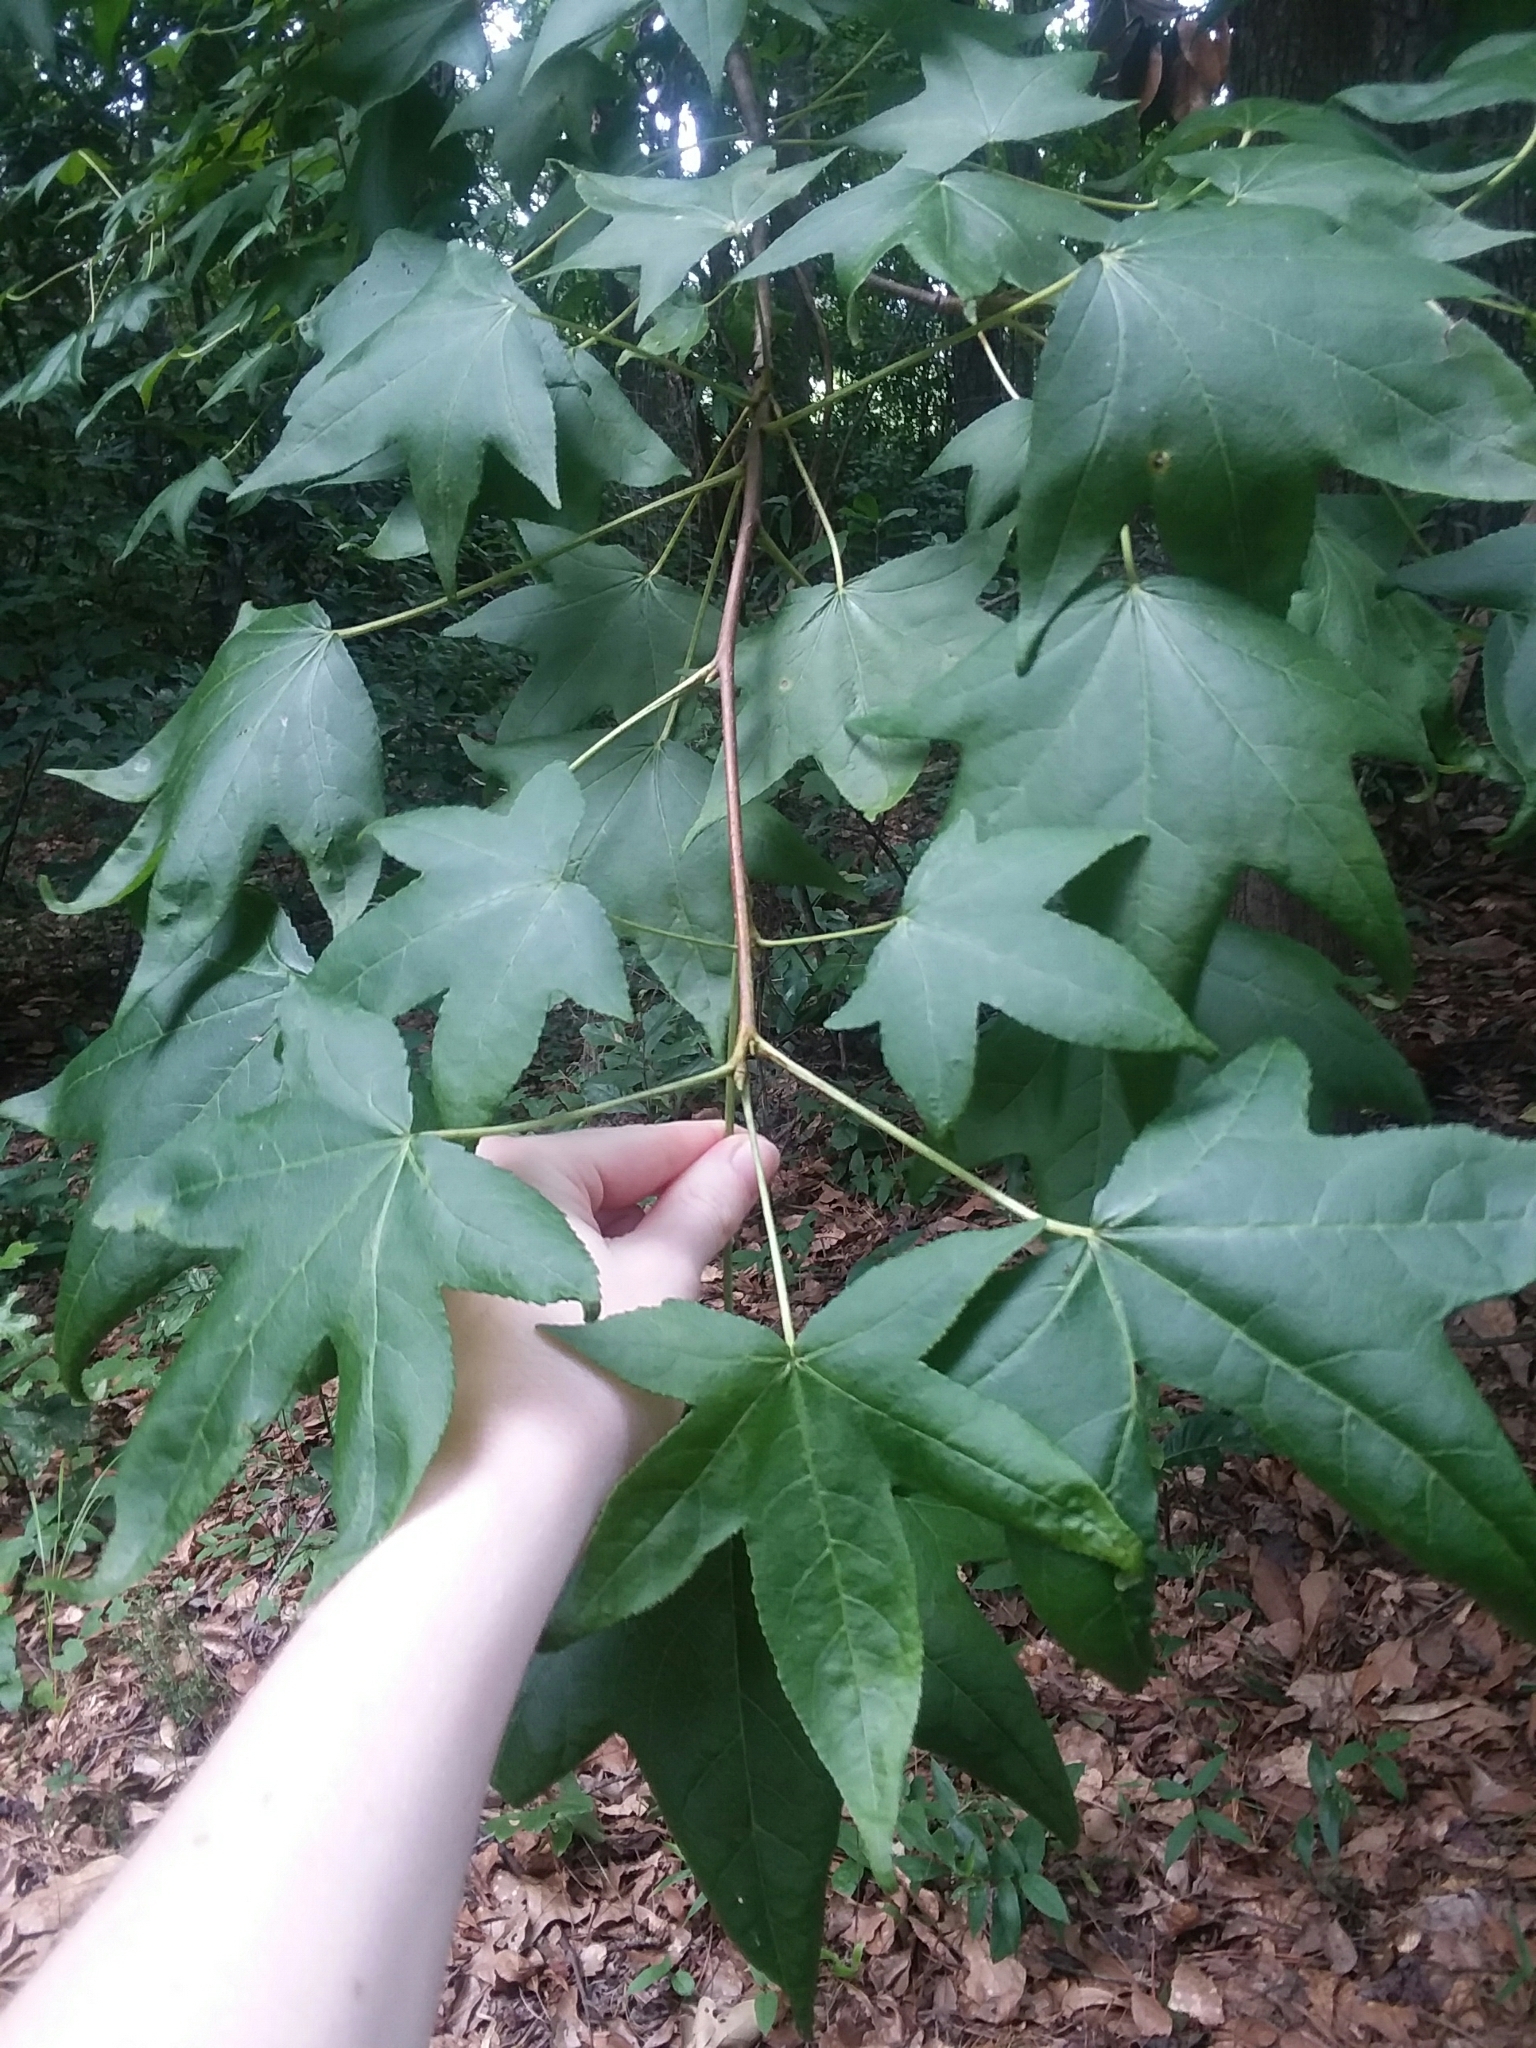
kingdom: Plantae
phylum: Tracheophyta
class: Magnoliopsida
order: Saxifragales
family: Altingiaceae
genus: Liquidambar
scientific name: Liquidambar styraciflua
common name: Sweet gum
